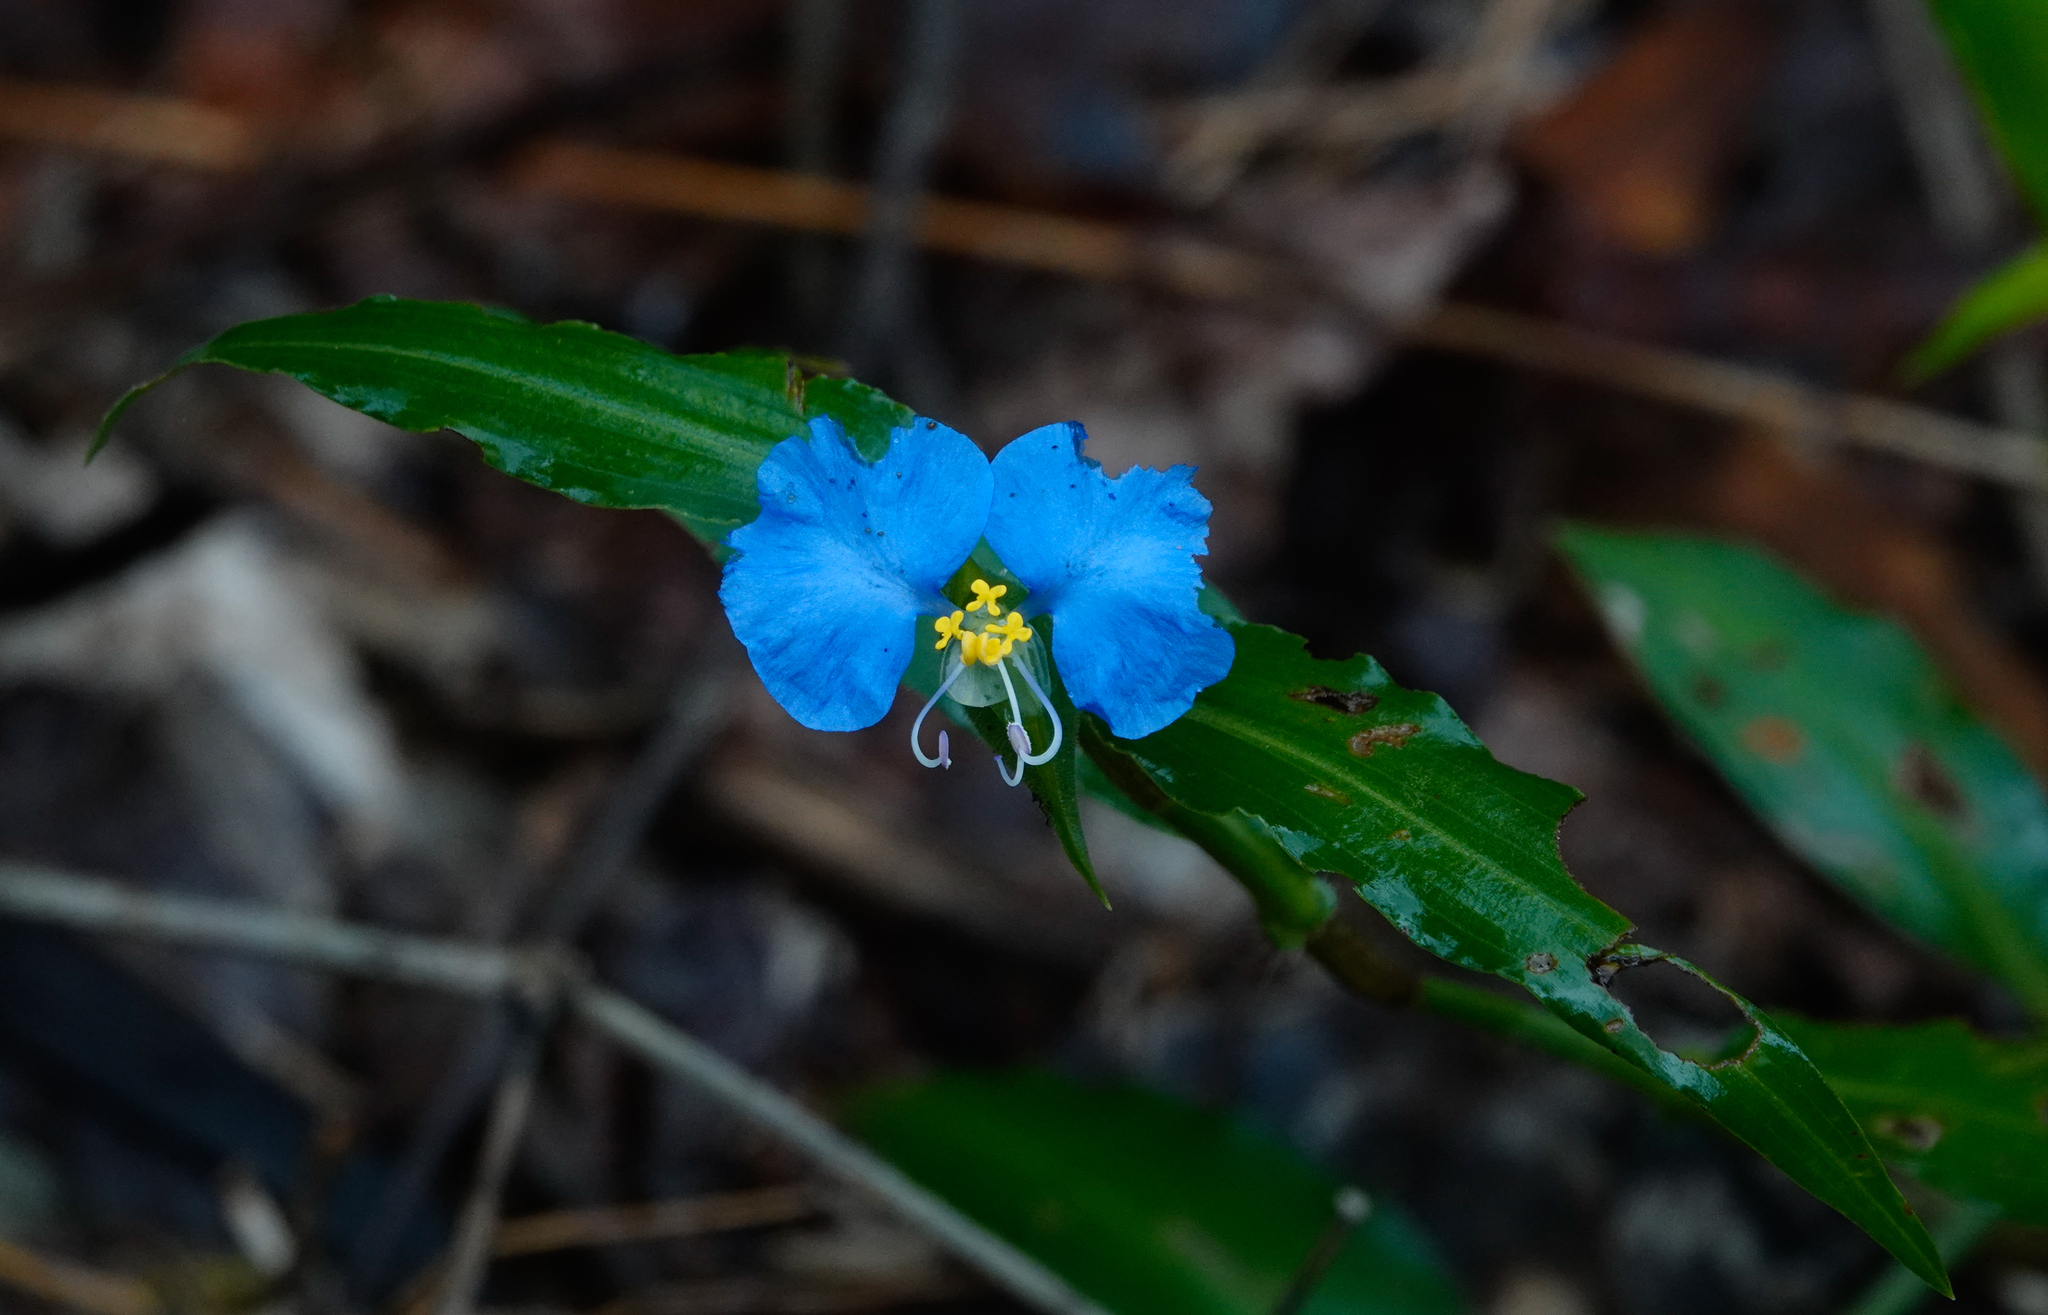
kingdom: Plantae
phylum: Tracheophyta
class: Liliopsida
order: Commelinales
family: Commelinaceae
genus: Commelina
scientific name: Commelina erecta
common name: Blousel blommetjie
